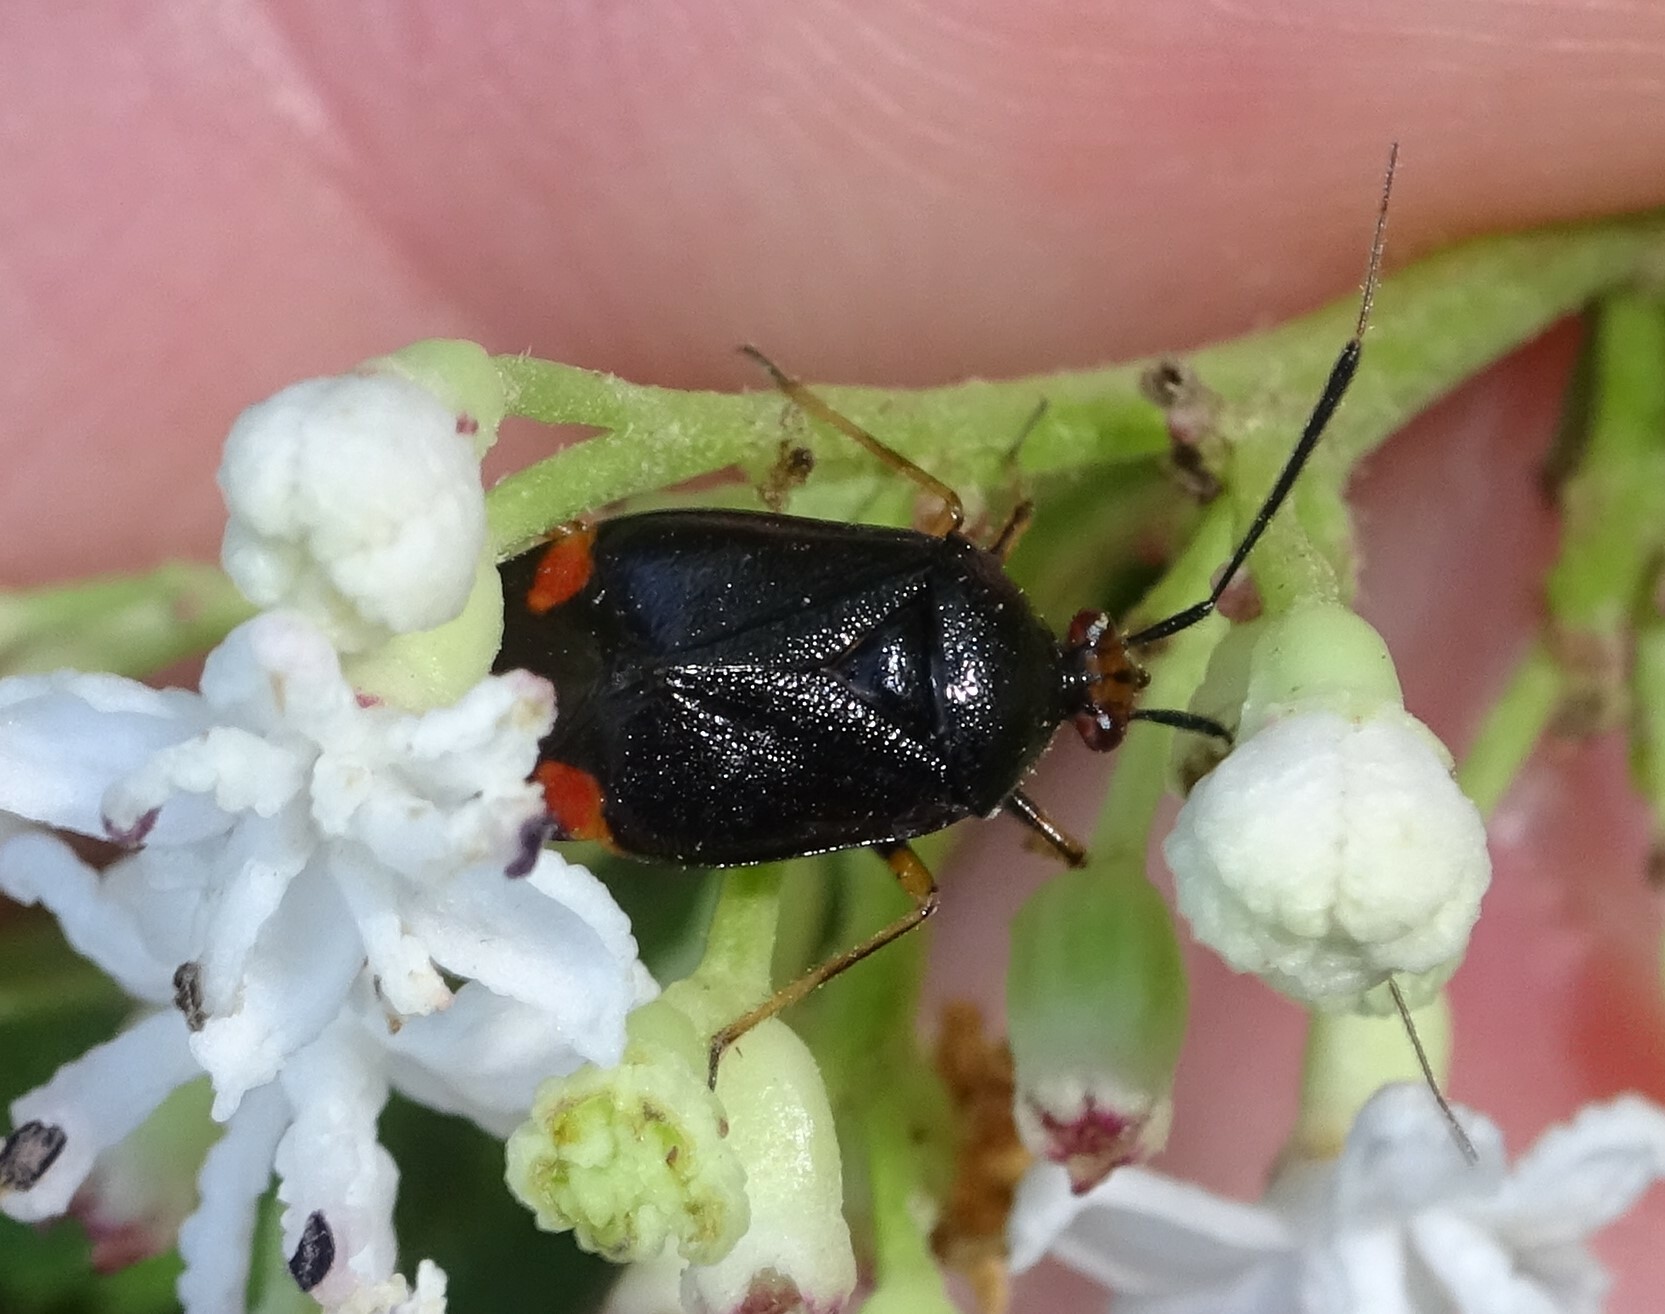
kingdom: Animalia
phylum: Arthropoda
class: Insecta
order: Hemiptera
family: Miridae
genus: Deraeocoris
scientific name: Deraeocoris ruber
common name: Plant bug
